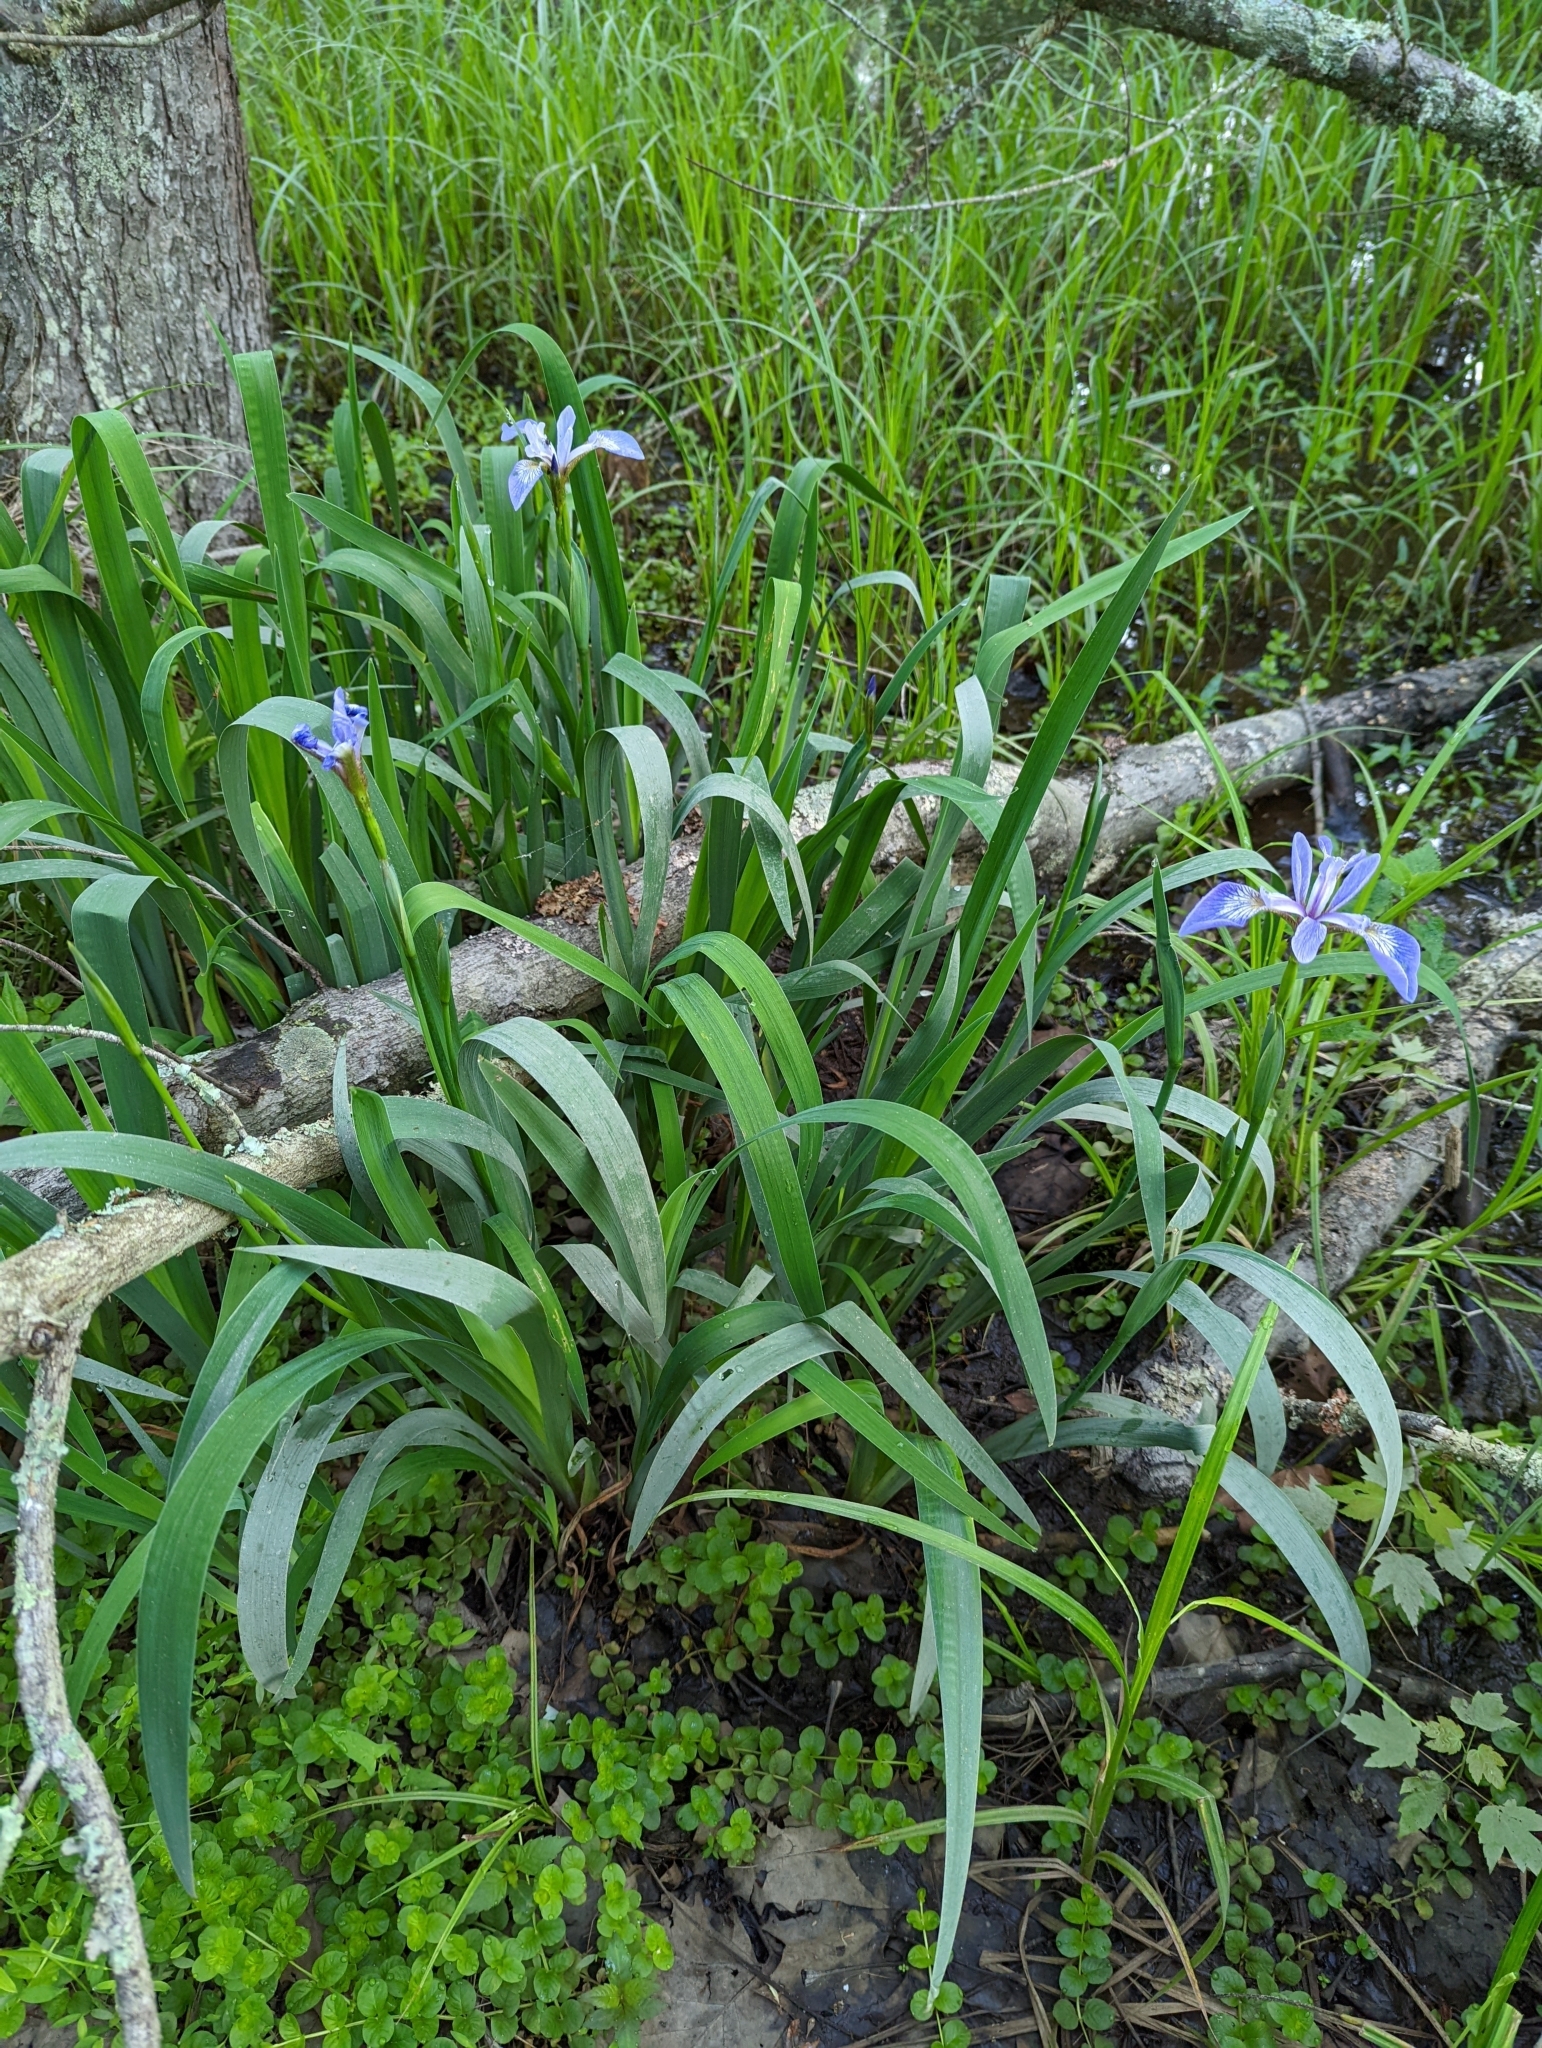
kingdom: Plantae
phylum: Tracheophyta
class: Liliopsida
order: Asparagales
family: Iridaceae
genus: Iris
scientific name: Iris versicolor
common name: Purple iris
